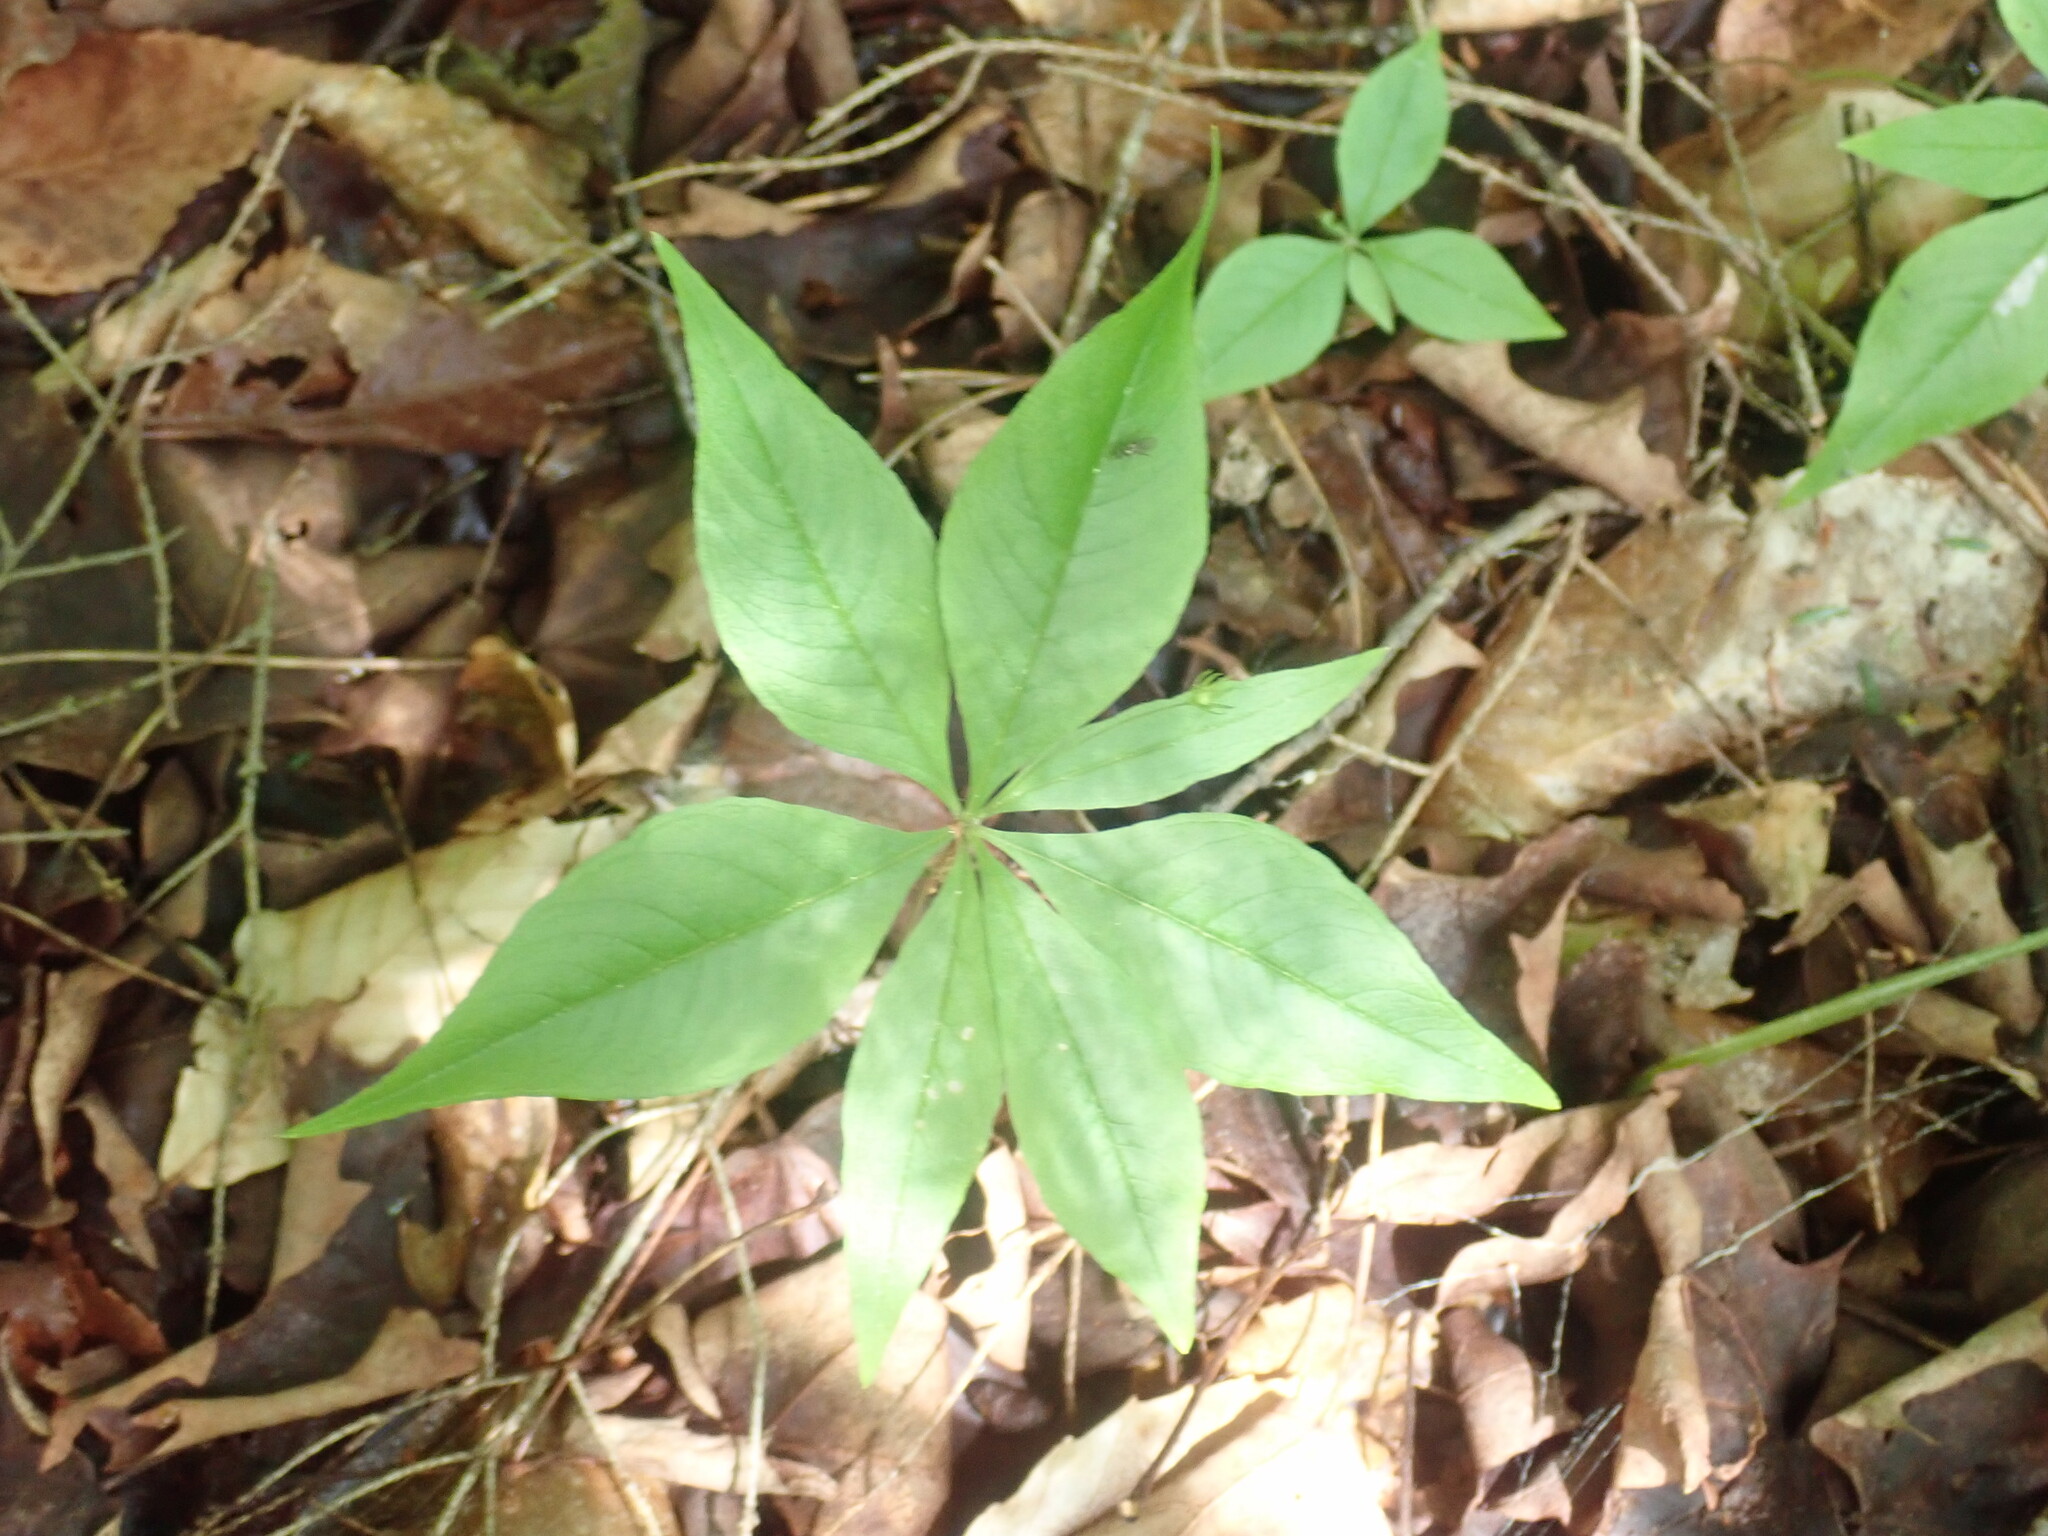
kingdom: Plantae
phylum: Tracheophyta
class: Magnoliopsida
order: Ericales
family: Primulaceae
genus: Lysimachia
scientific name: Lysimachia borealis
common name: American starflower
